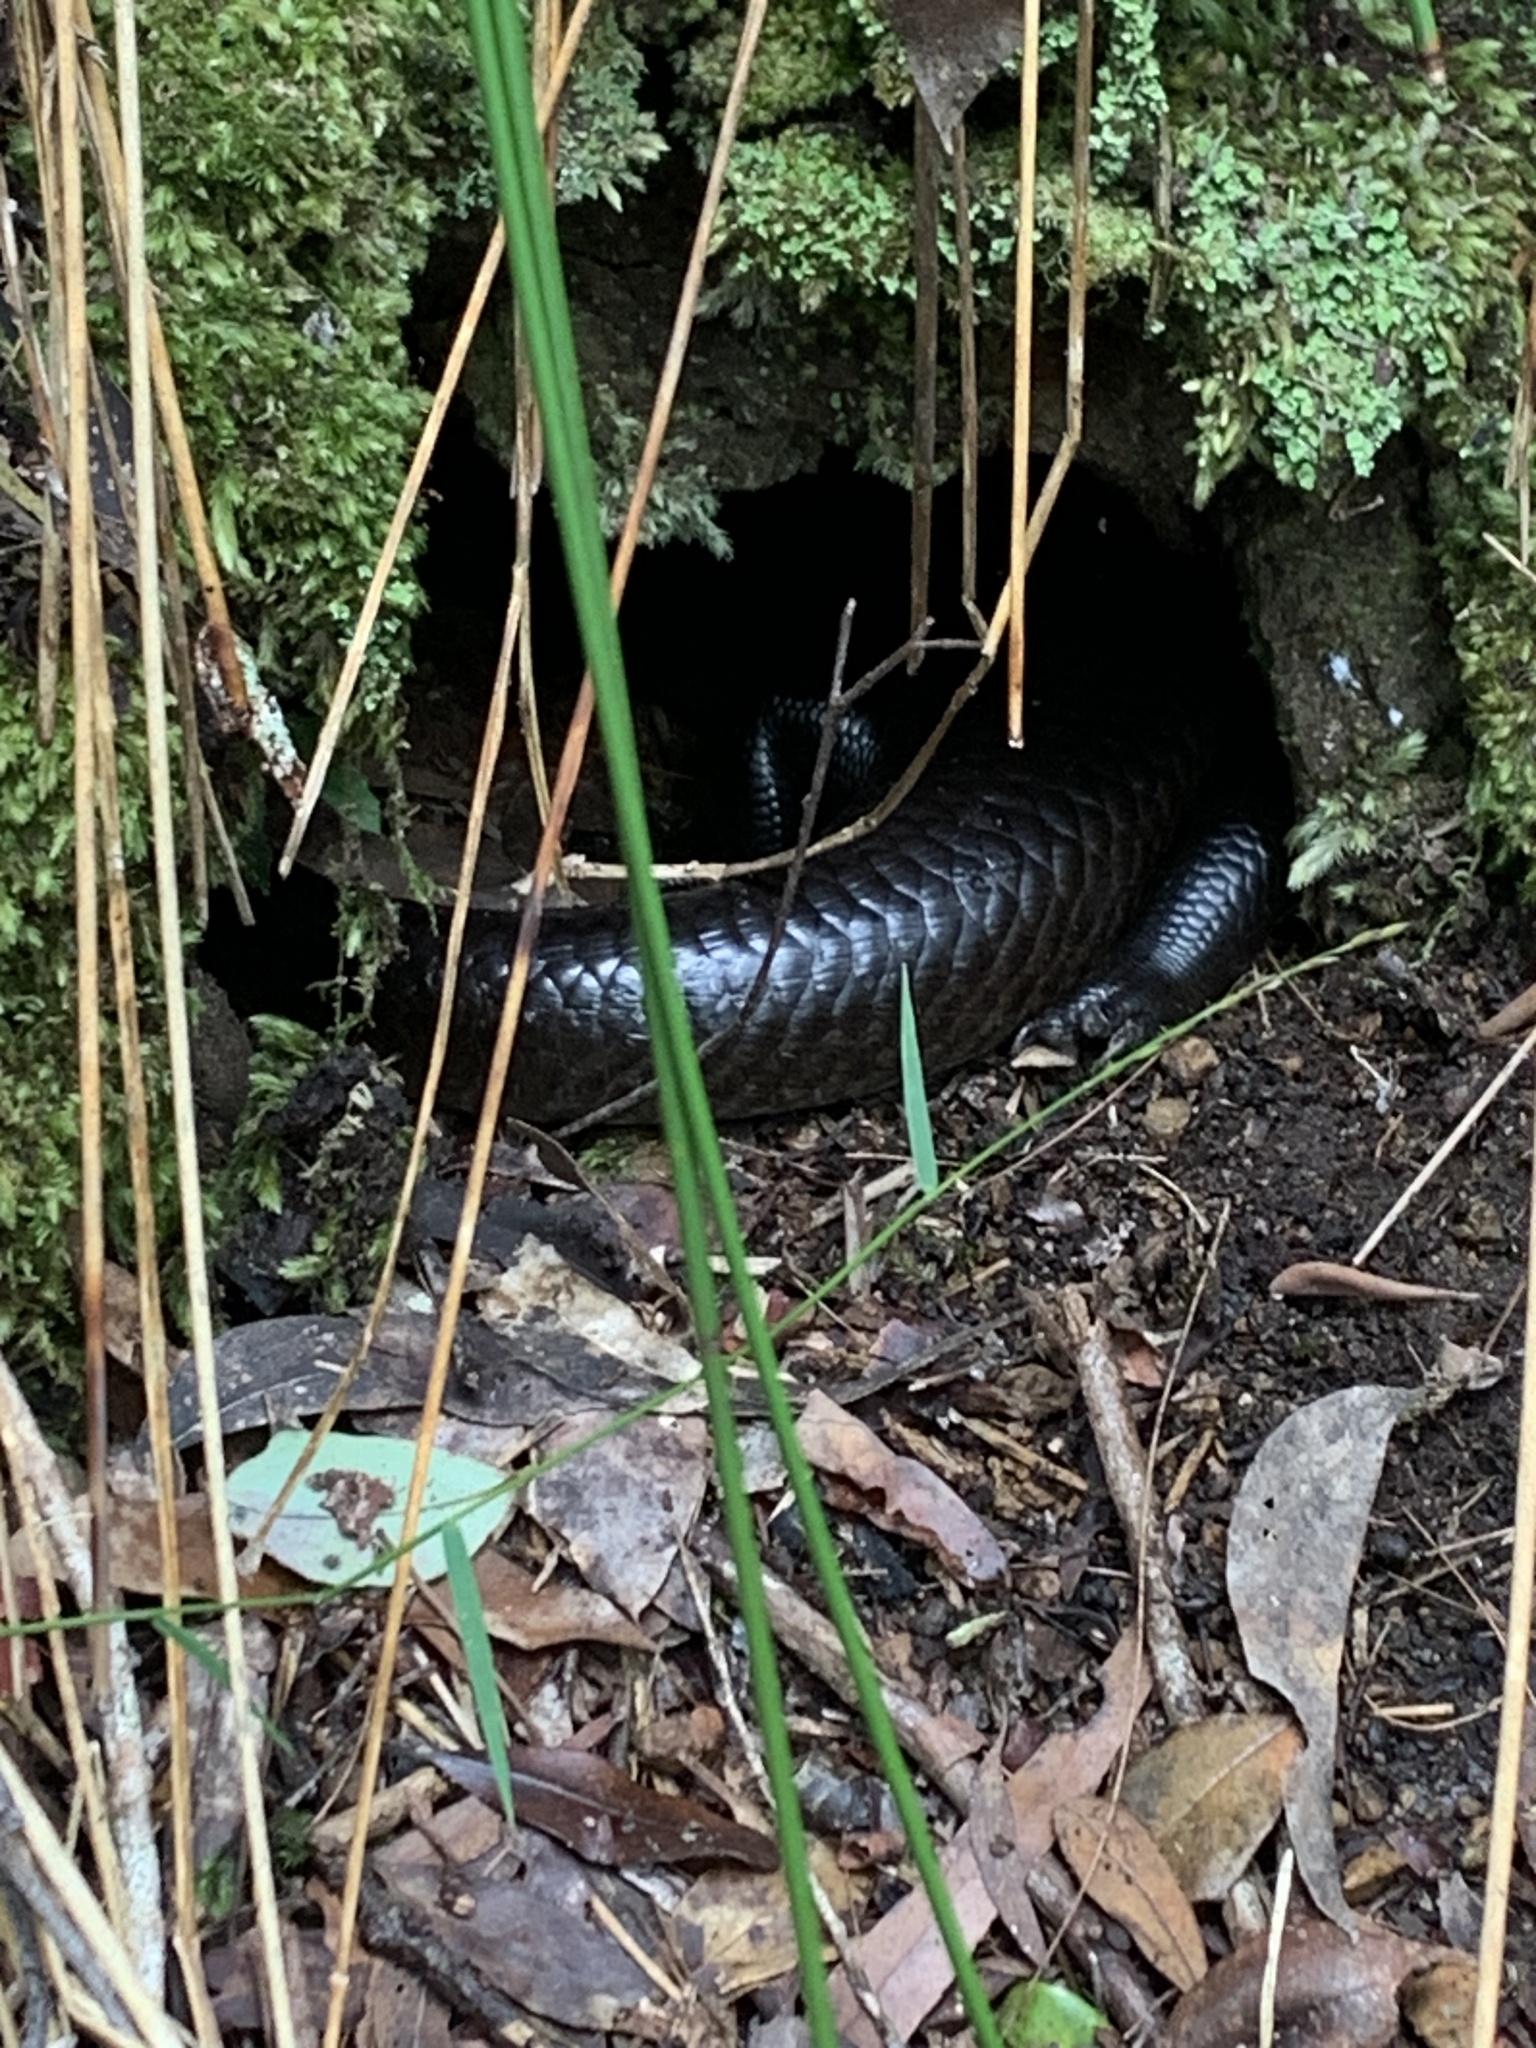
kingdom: Animalia
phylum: Chordata
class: Squamata
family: Scincidae
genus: Bellatorias
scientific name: Bellatorias major
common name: Land mullet
